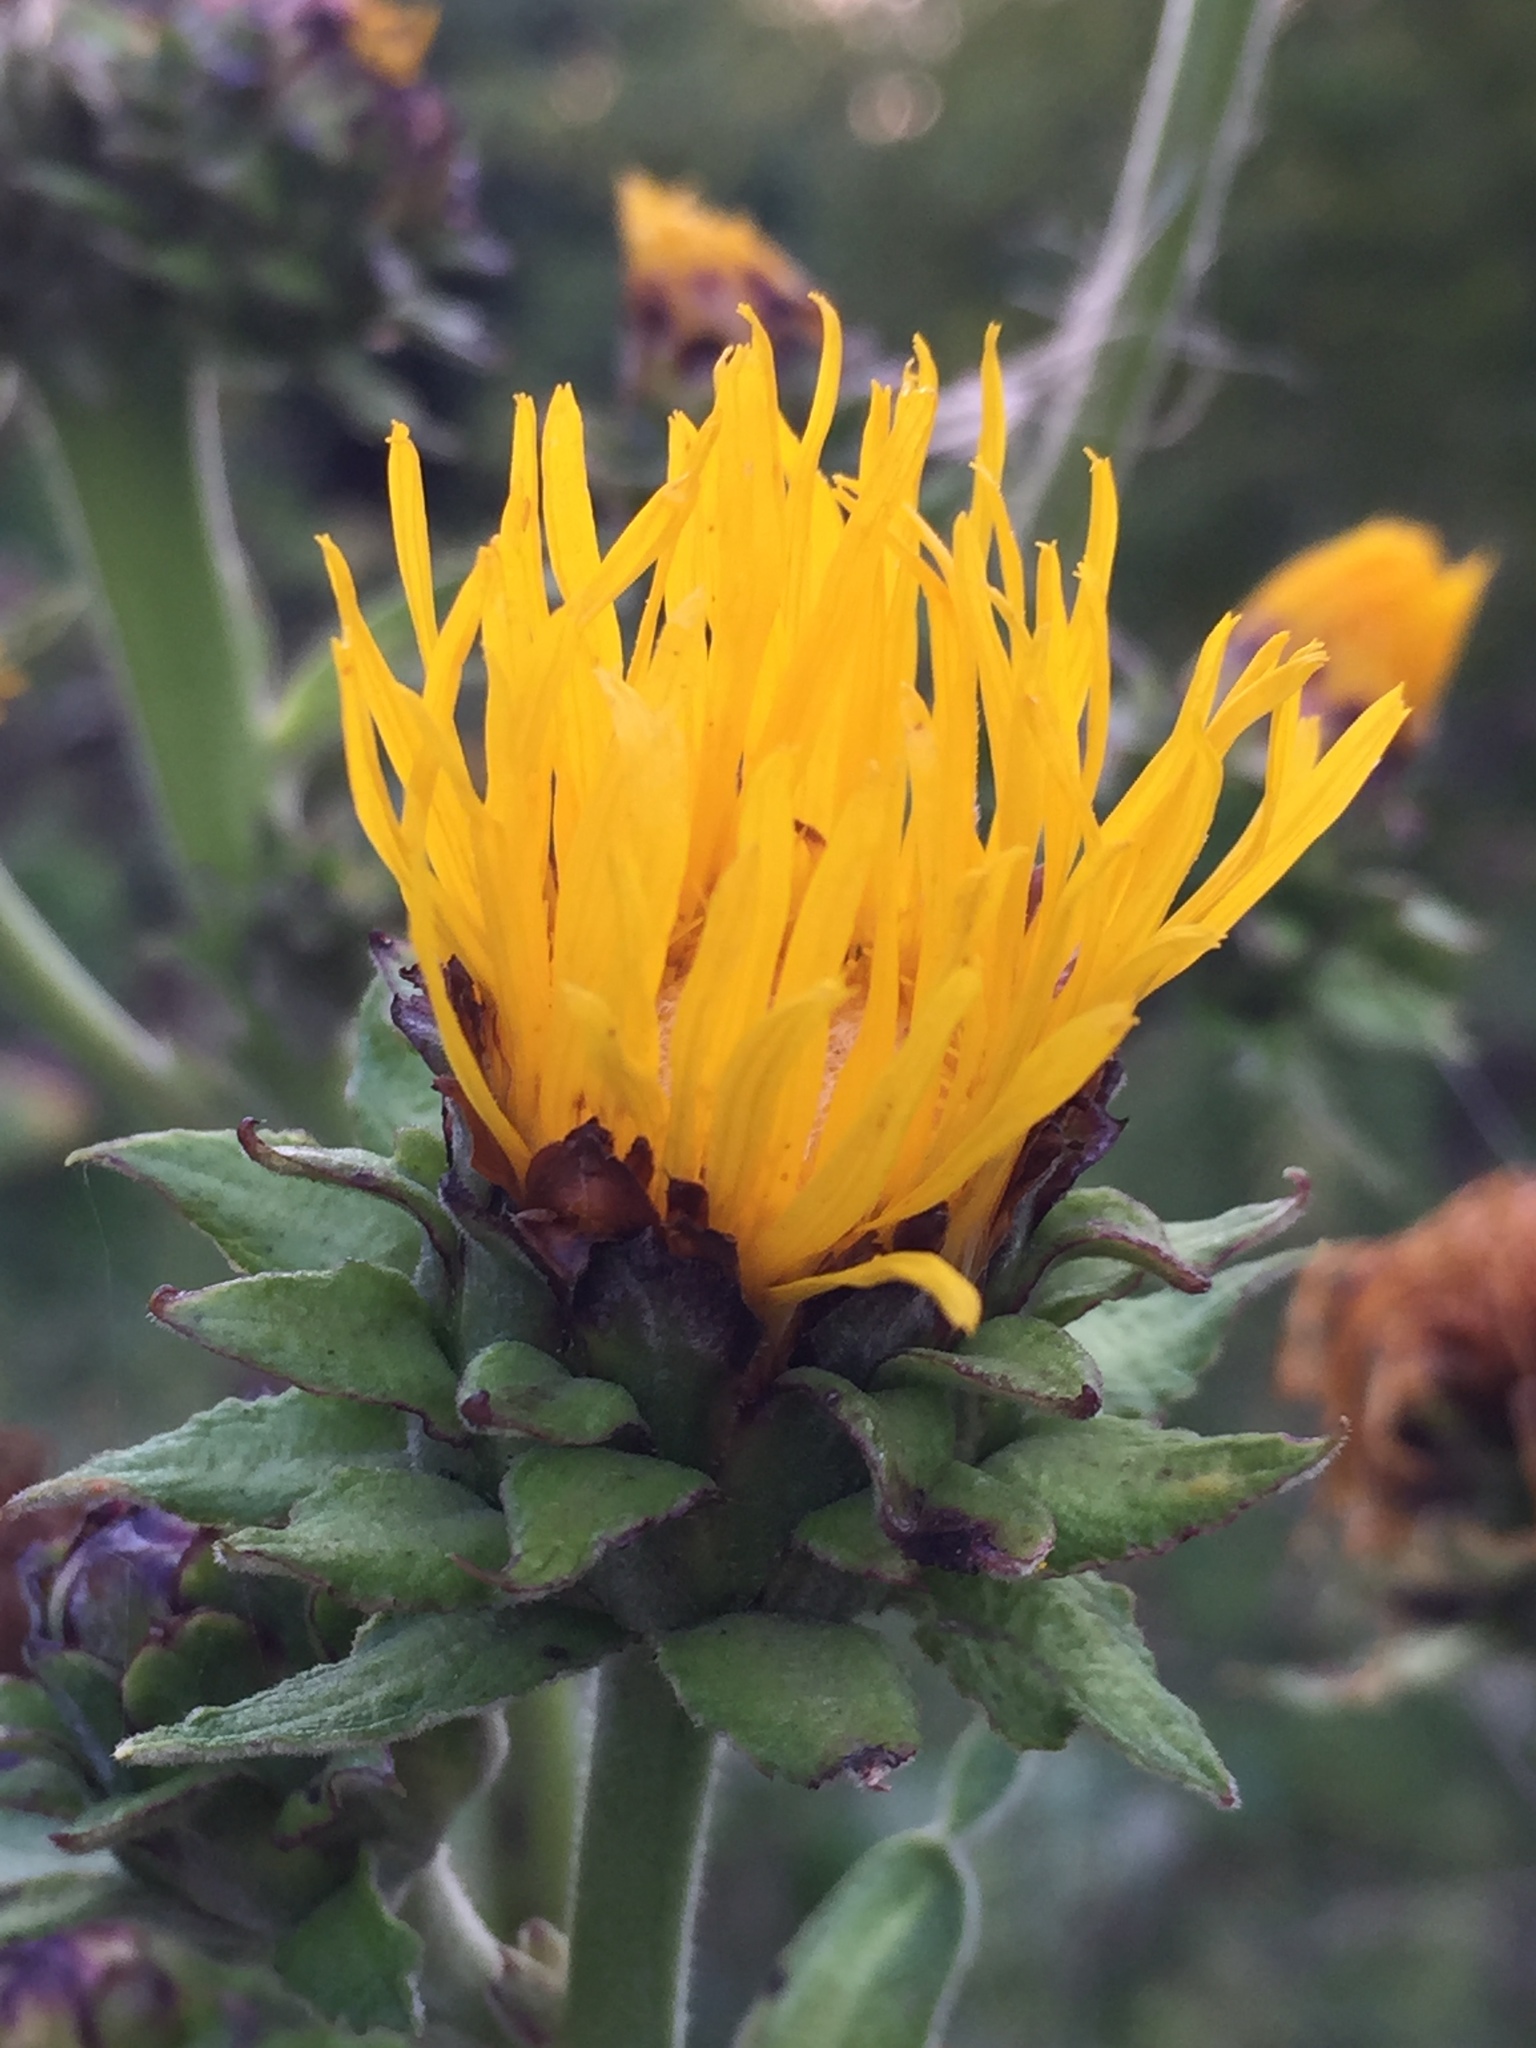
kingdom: Plantae
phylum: Tracheophyta
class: Magnoliopsida
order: Asterales
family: Asteraceae
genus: Inula
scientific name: Inula helenium
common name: Elecampane
